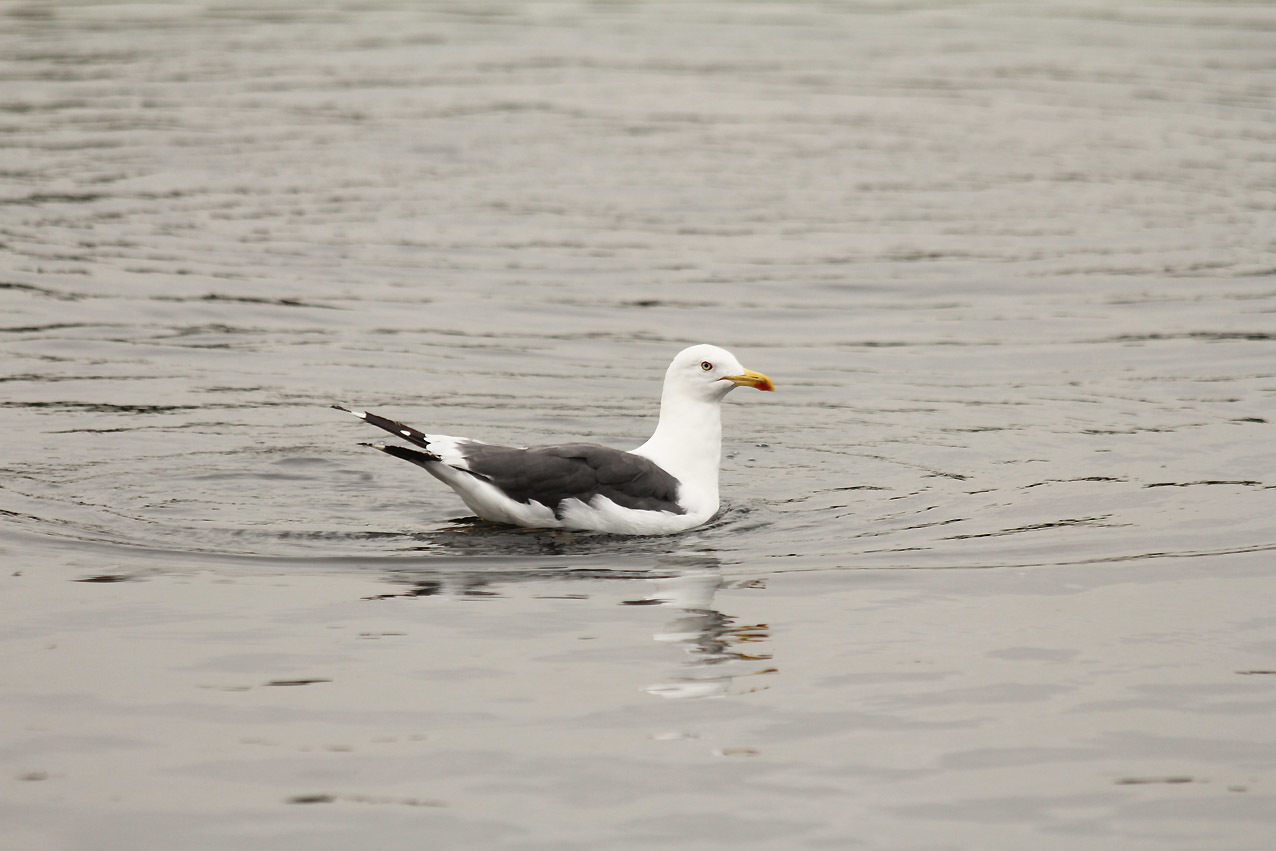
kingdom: Animalia
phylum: Chordata
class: Aves
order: Charadriiformes
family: Laridae
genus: Larus
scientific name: Larus fuscus
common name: Lesser black-backed gull
